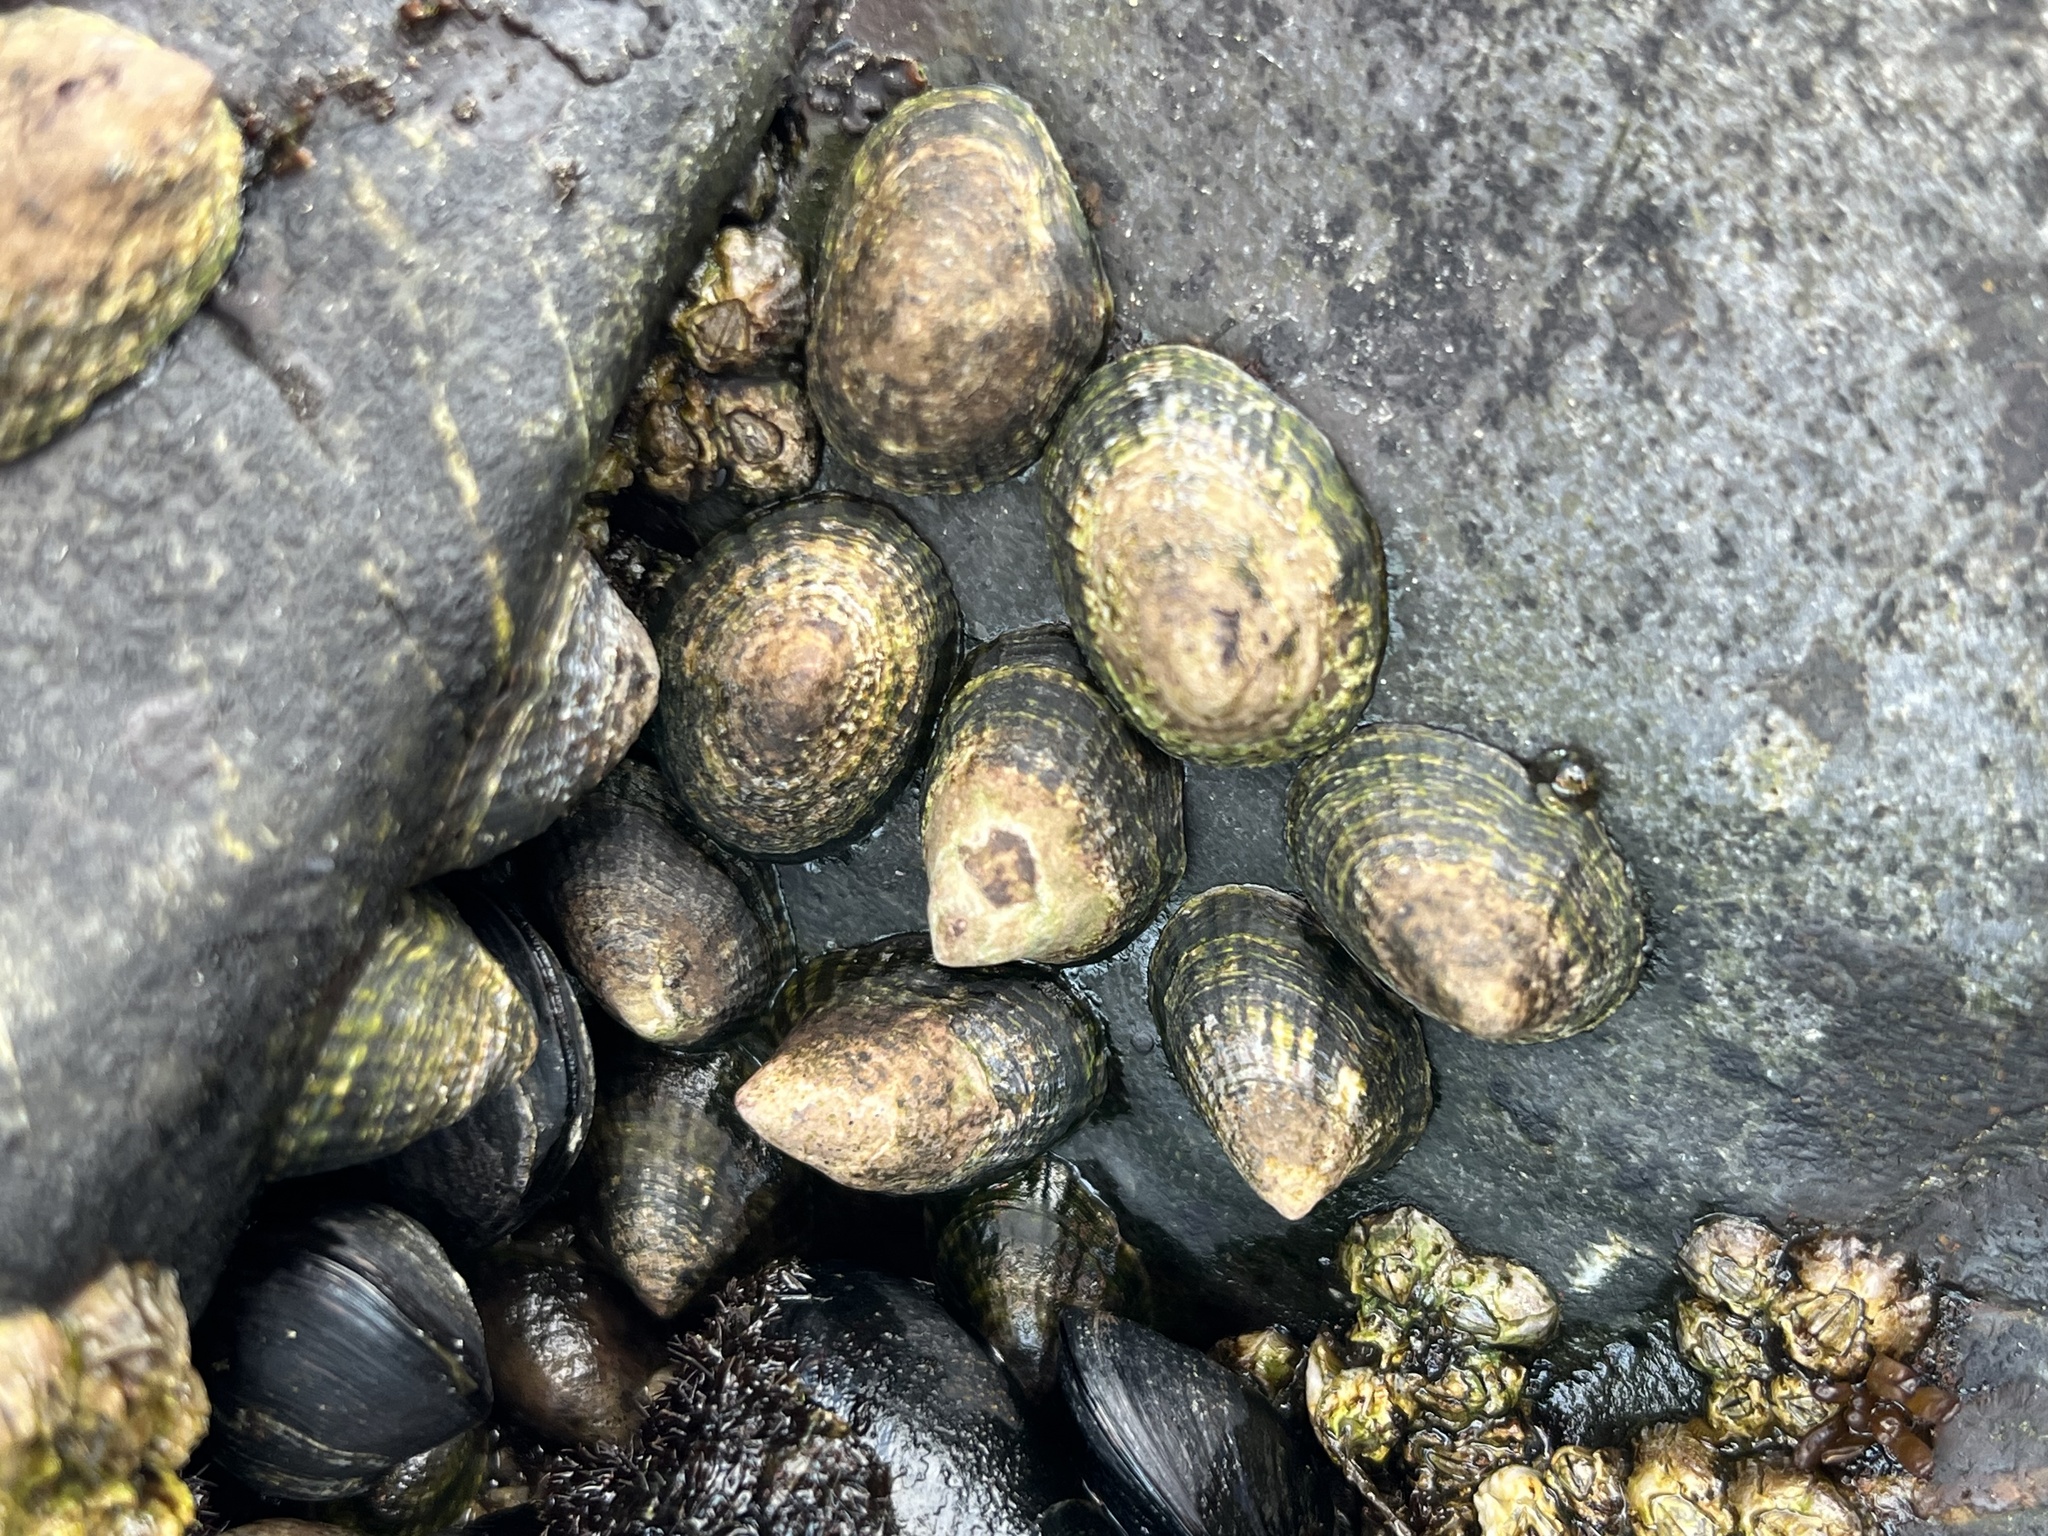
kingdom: Animalia
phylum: Mollusca
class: Gastropoda
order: Siphonariida
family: Siphonariidae
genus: Siphonaria
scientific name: Siphonaria lessonii
